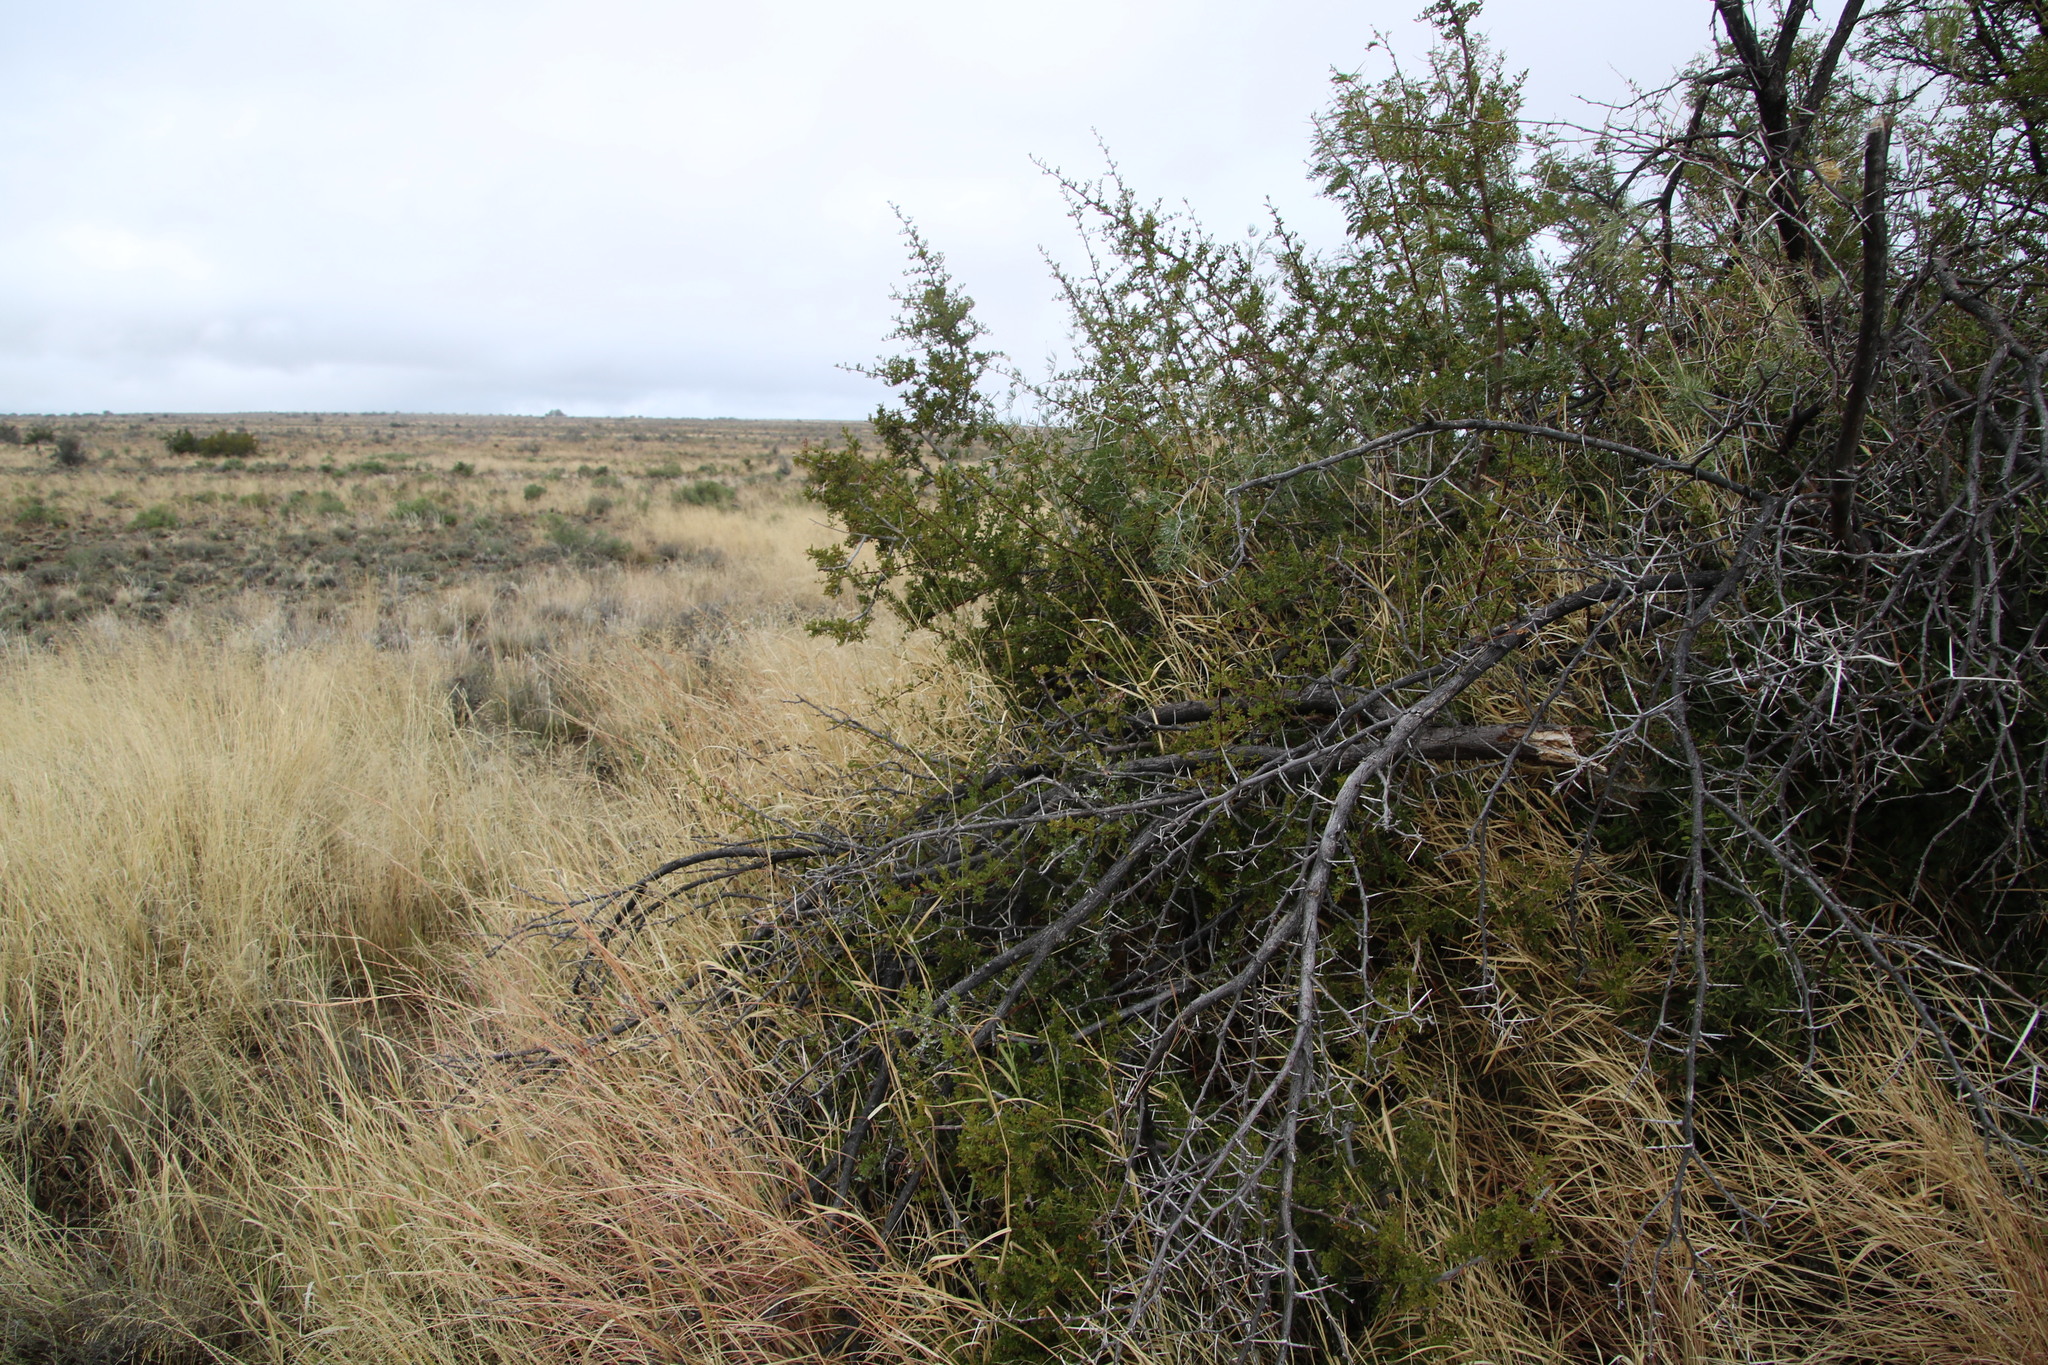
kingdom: Plantae
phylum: Tracheophyta
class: Magnoliopsida
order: Sapindales
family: Anacardiaceae
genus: Searsia
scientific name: Searsia burchellii
